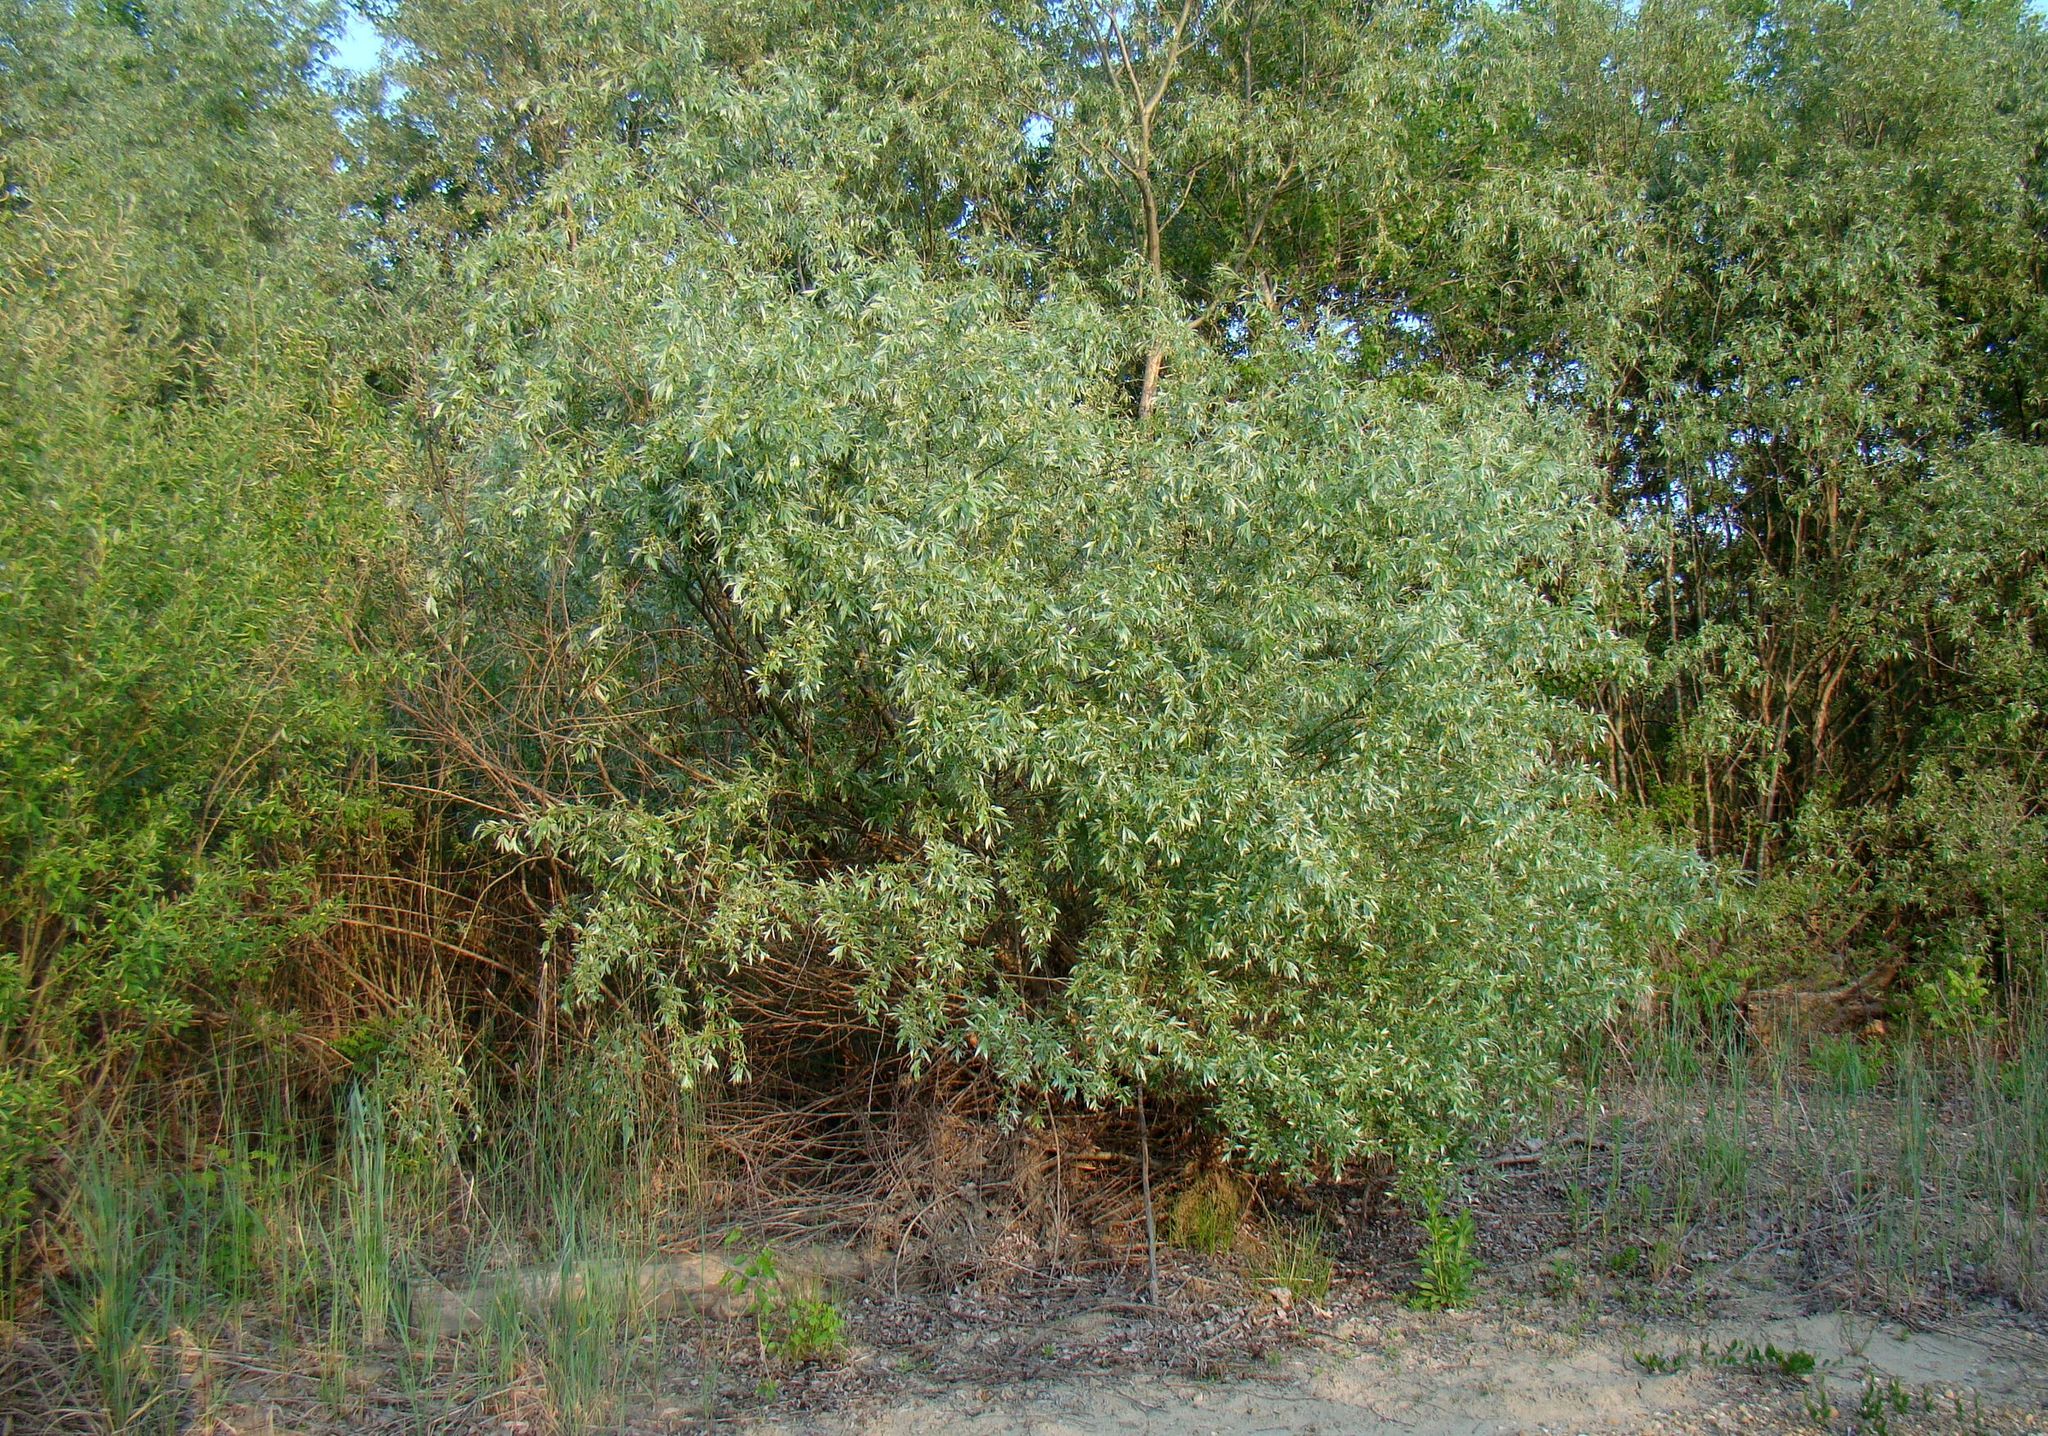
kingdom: Plantae
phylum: Tracheophyta
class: Magnoliopsida
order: Malpighiales
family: Salicaceae
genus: Salix
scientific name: Salix alba
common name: White willow
